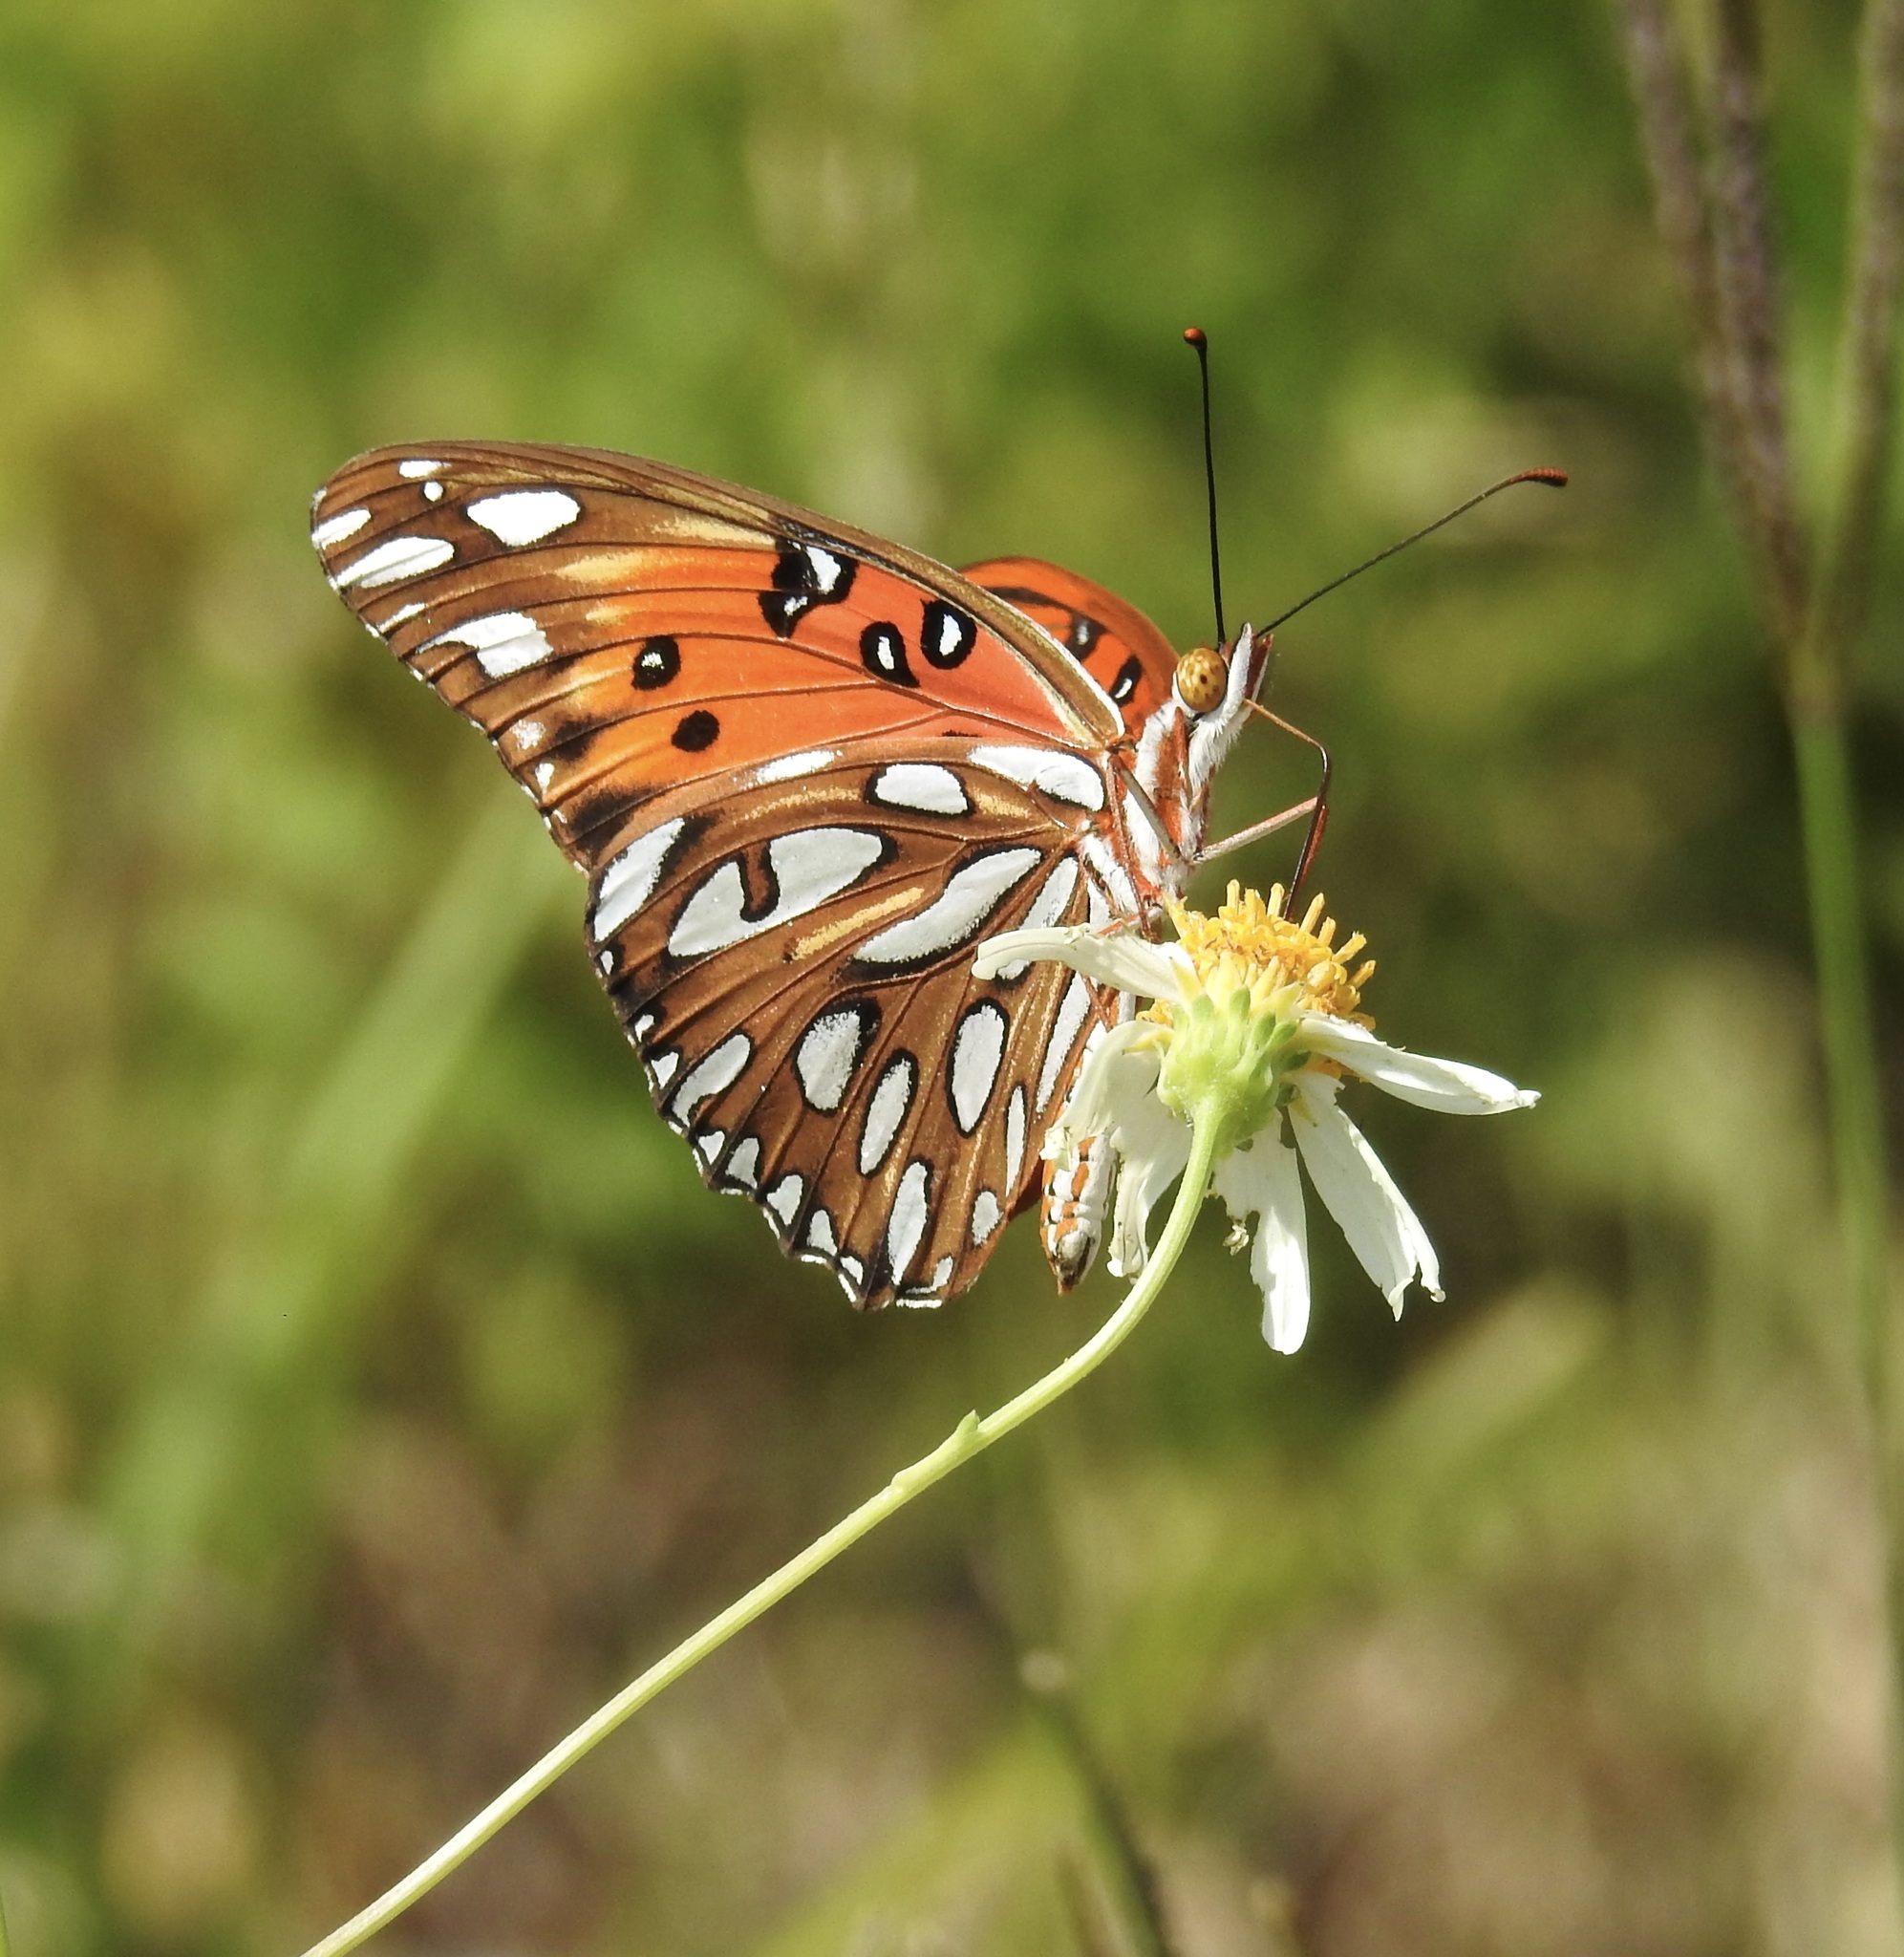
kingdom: Animalia
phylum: Arthropoda
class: Insecta
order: Lepidoptera
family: Nymphalidae
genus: Dione
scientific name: Dione vanillae
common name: Gulf fritillary
